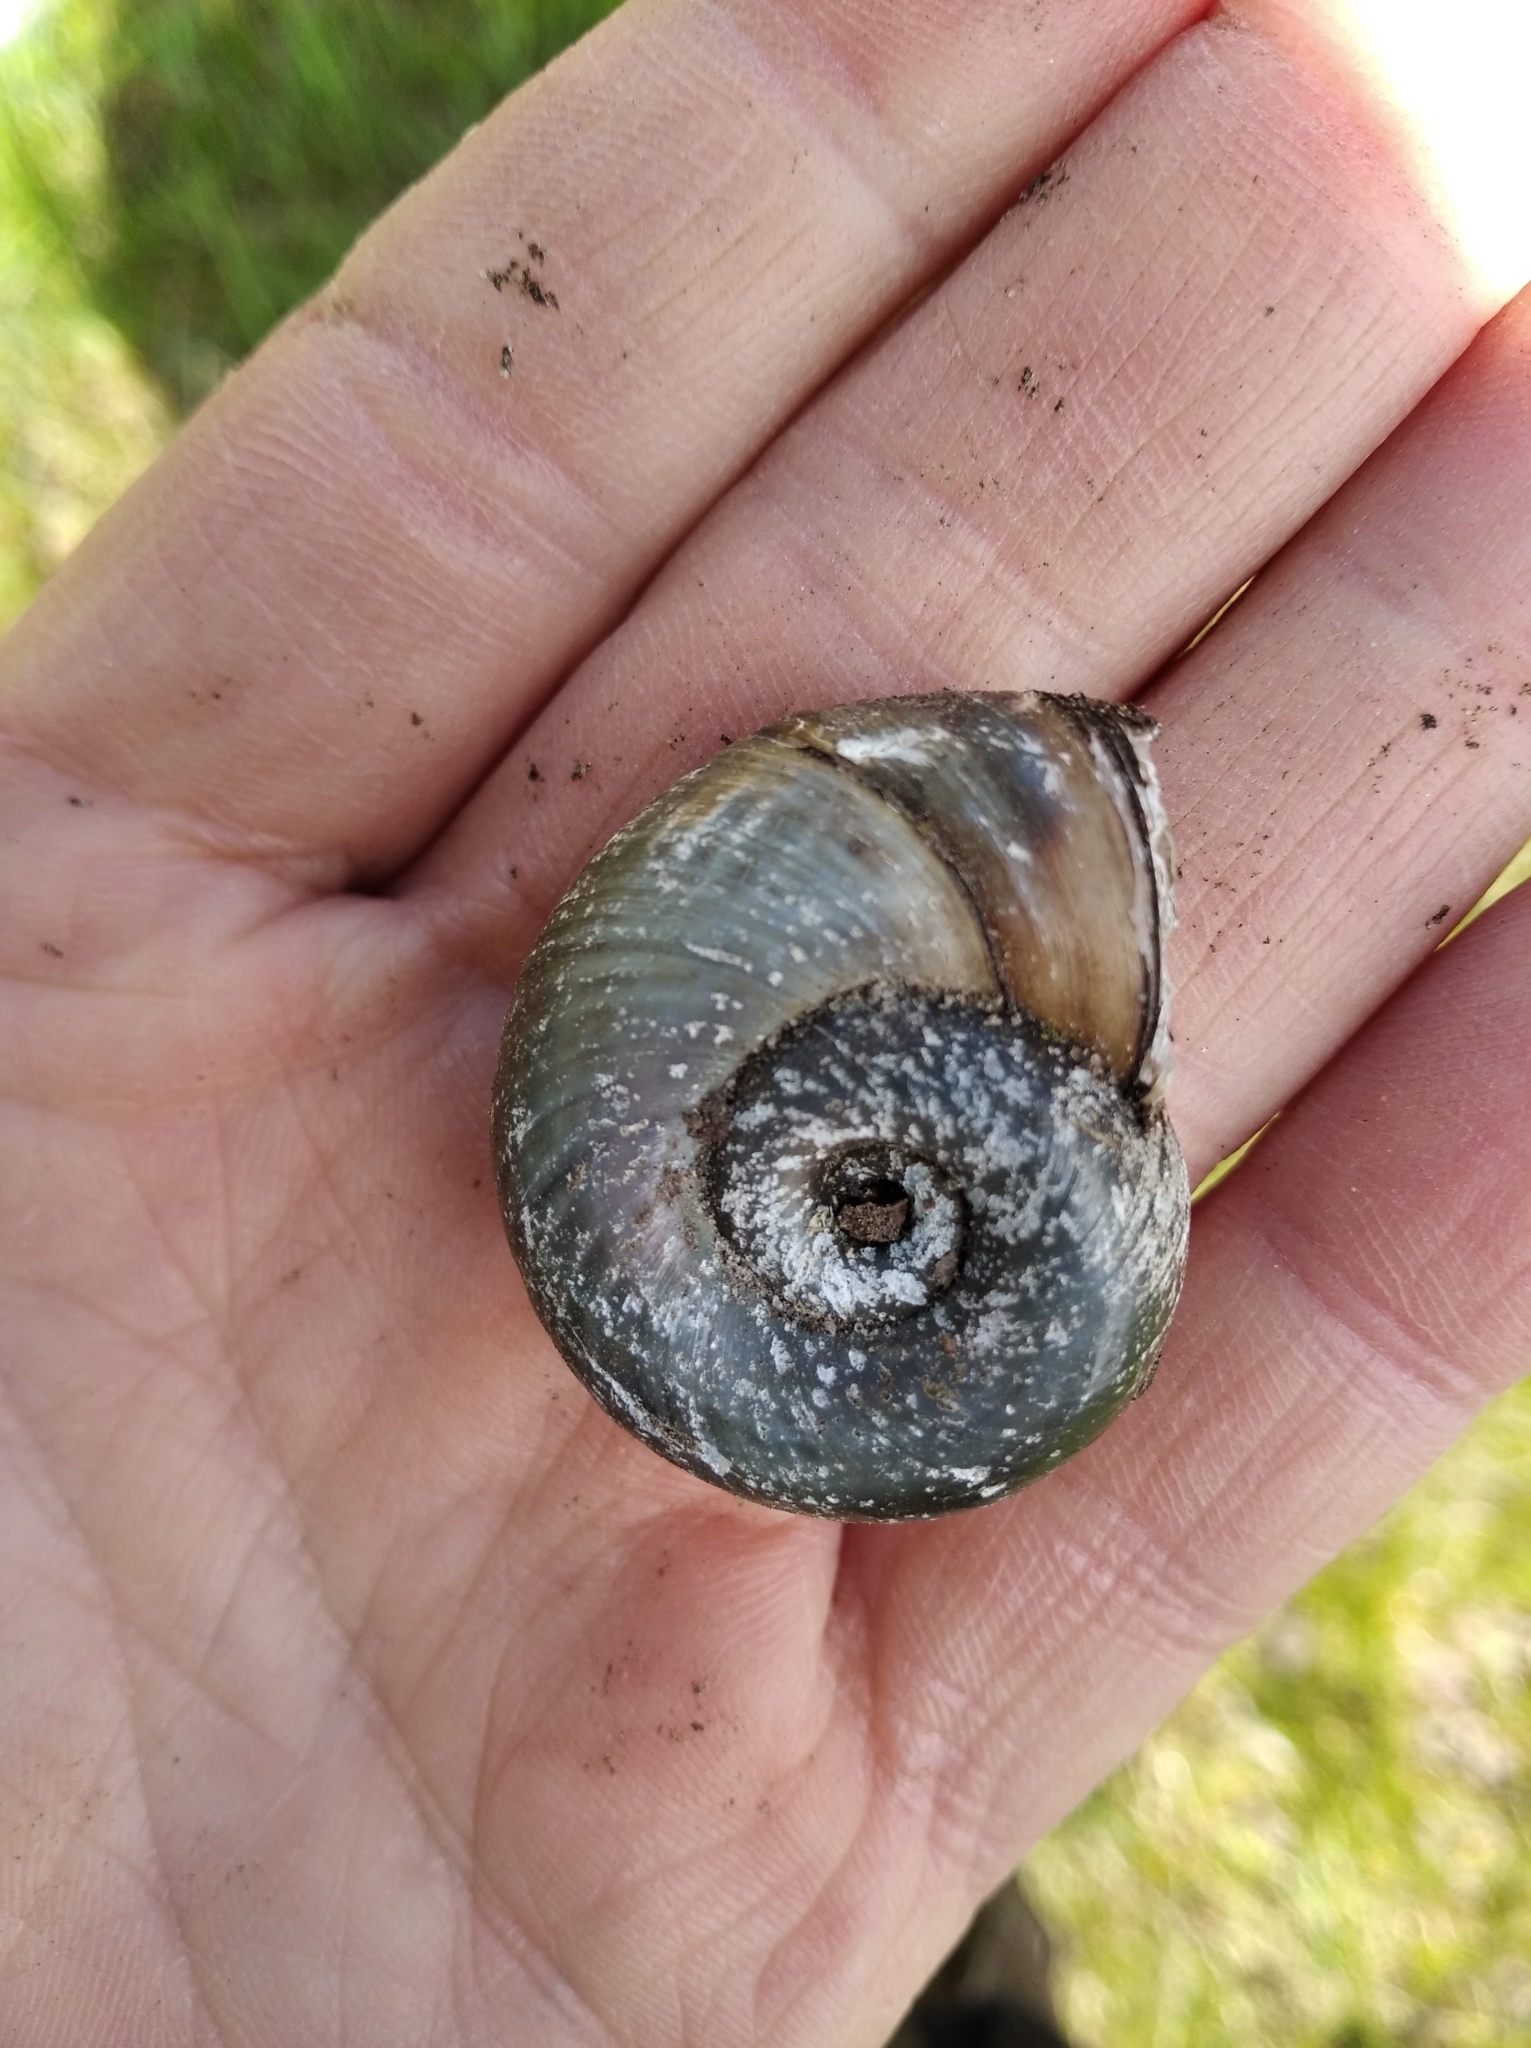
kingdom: Animalia
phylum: Mollusca
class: Gastropoda
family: Planorbidae
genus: Planorbarius
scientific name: Planorbarius corneus
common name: Great ramshorn
